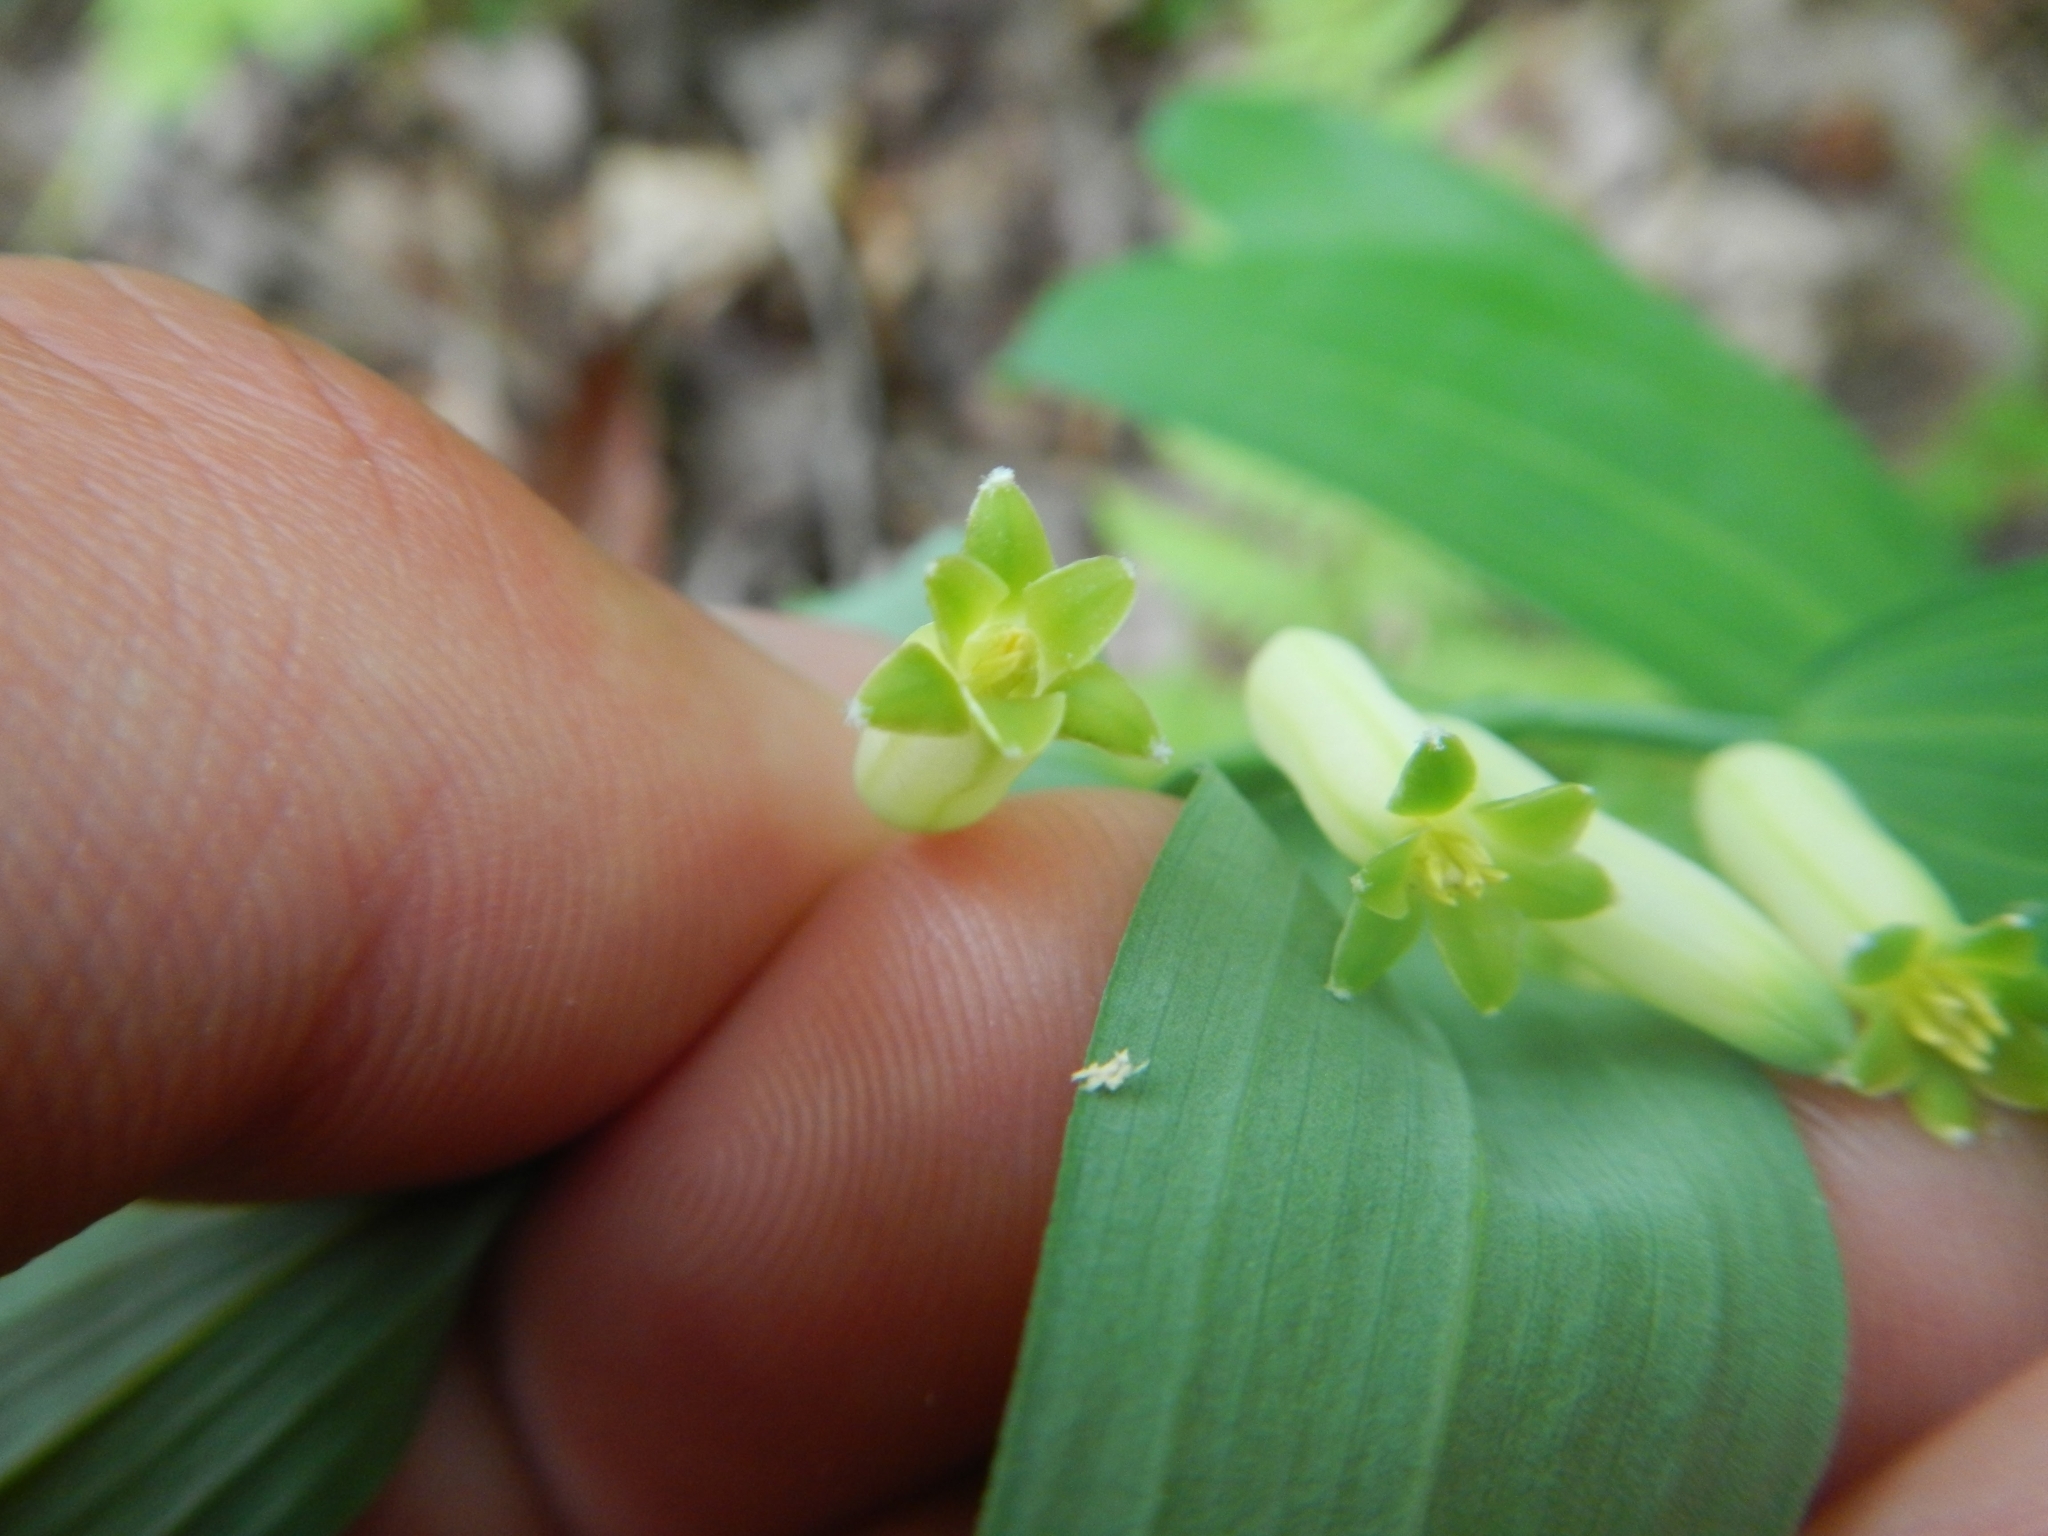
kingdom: Plantae
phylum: Tracheophyta
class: Liliopsida
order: Asparagales
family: Asparagaceae
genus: Polygonatum
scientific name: Polygonatum biflorum
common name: American solomon's-seal
